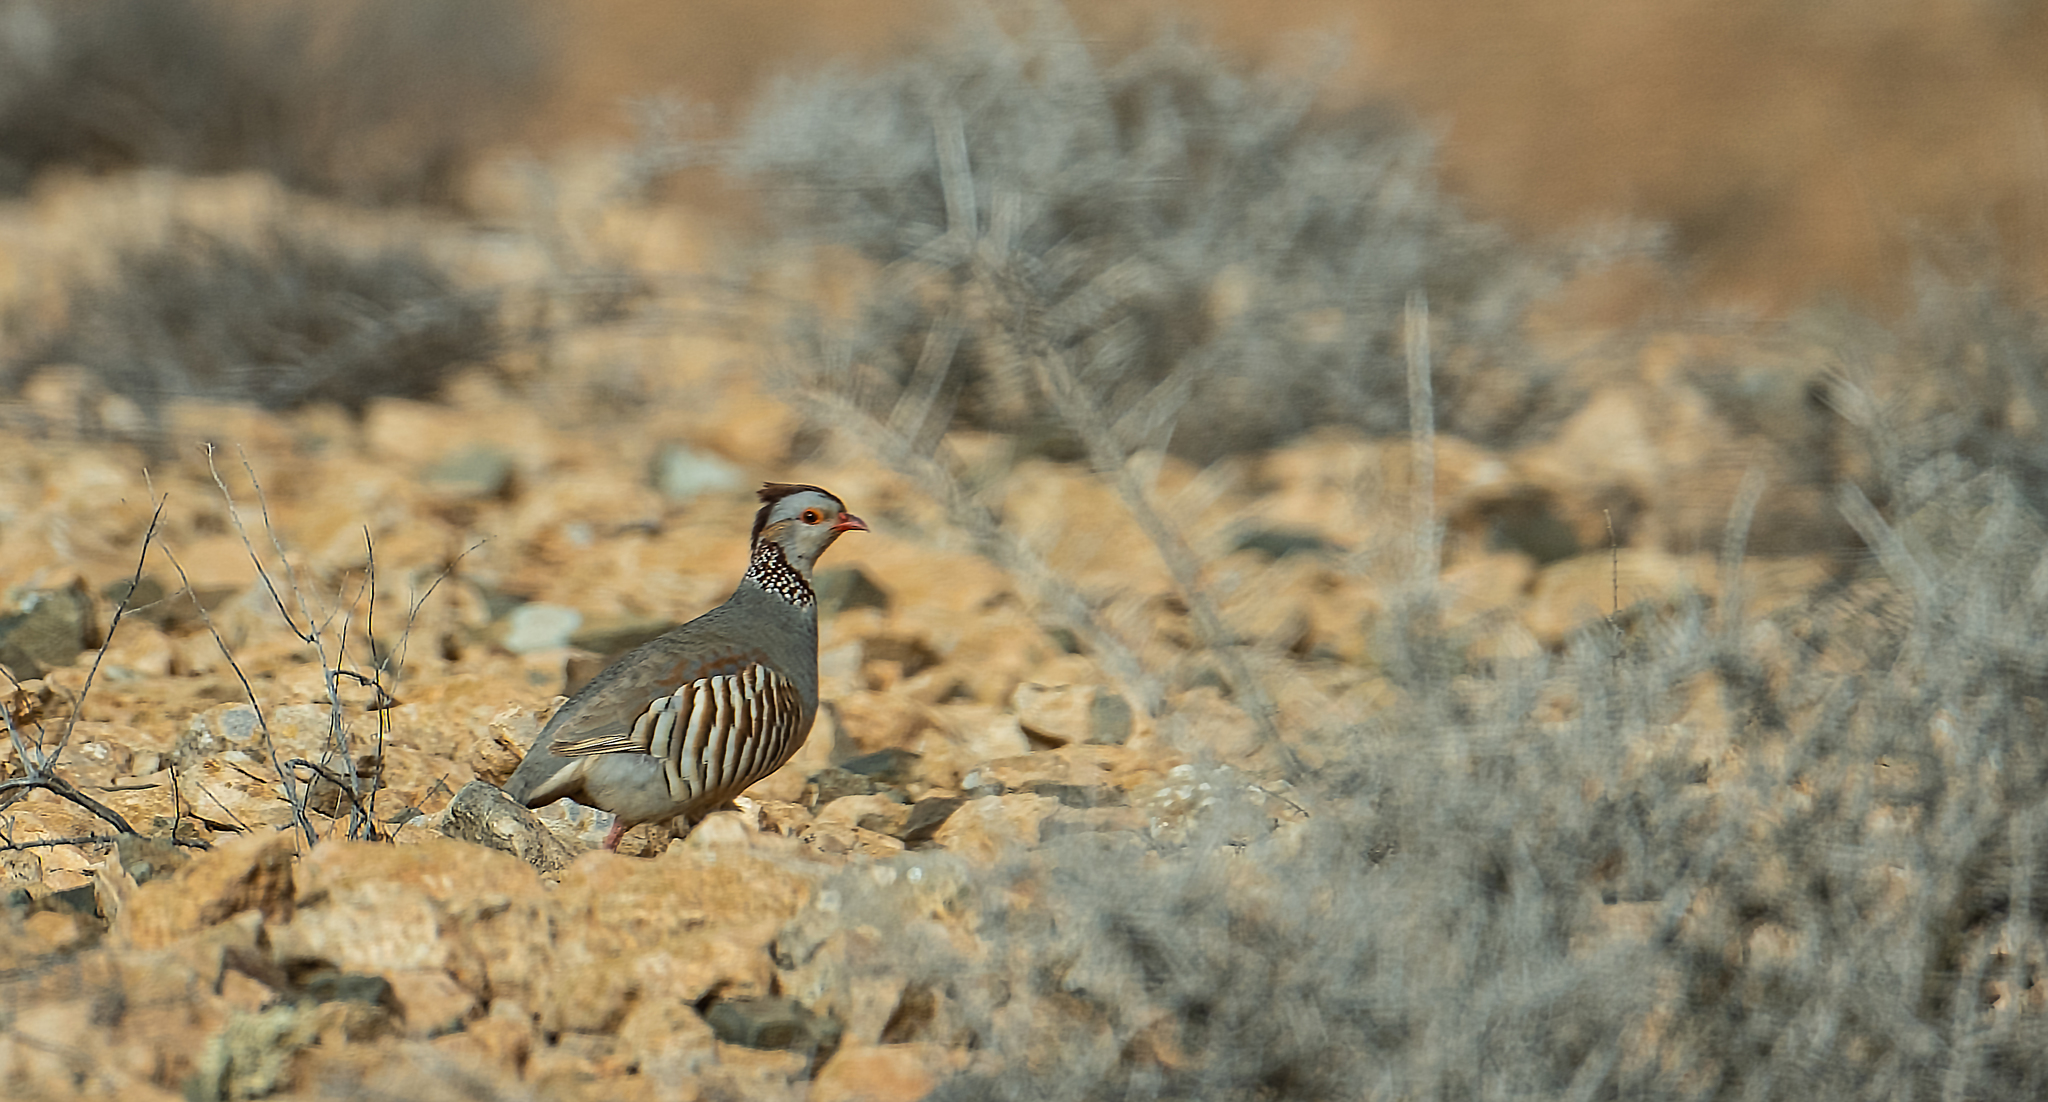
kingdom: Animalia
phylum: Chordata
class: Aves
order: Galliformes
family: Phasianidae
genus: Alectoris
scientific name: Alectoris barbara
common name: Barbary partridge
